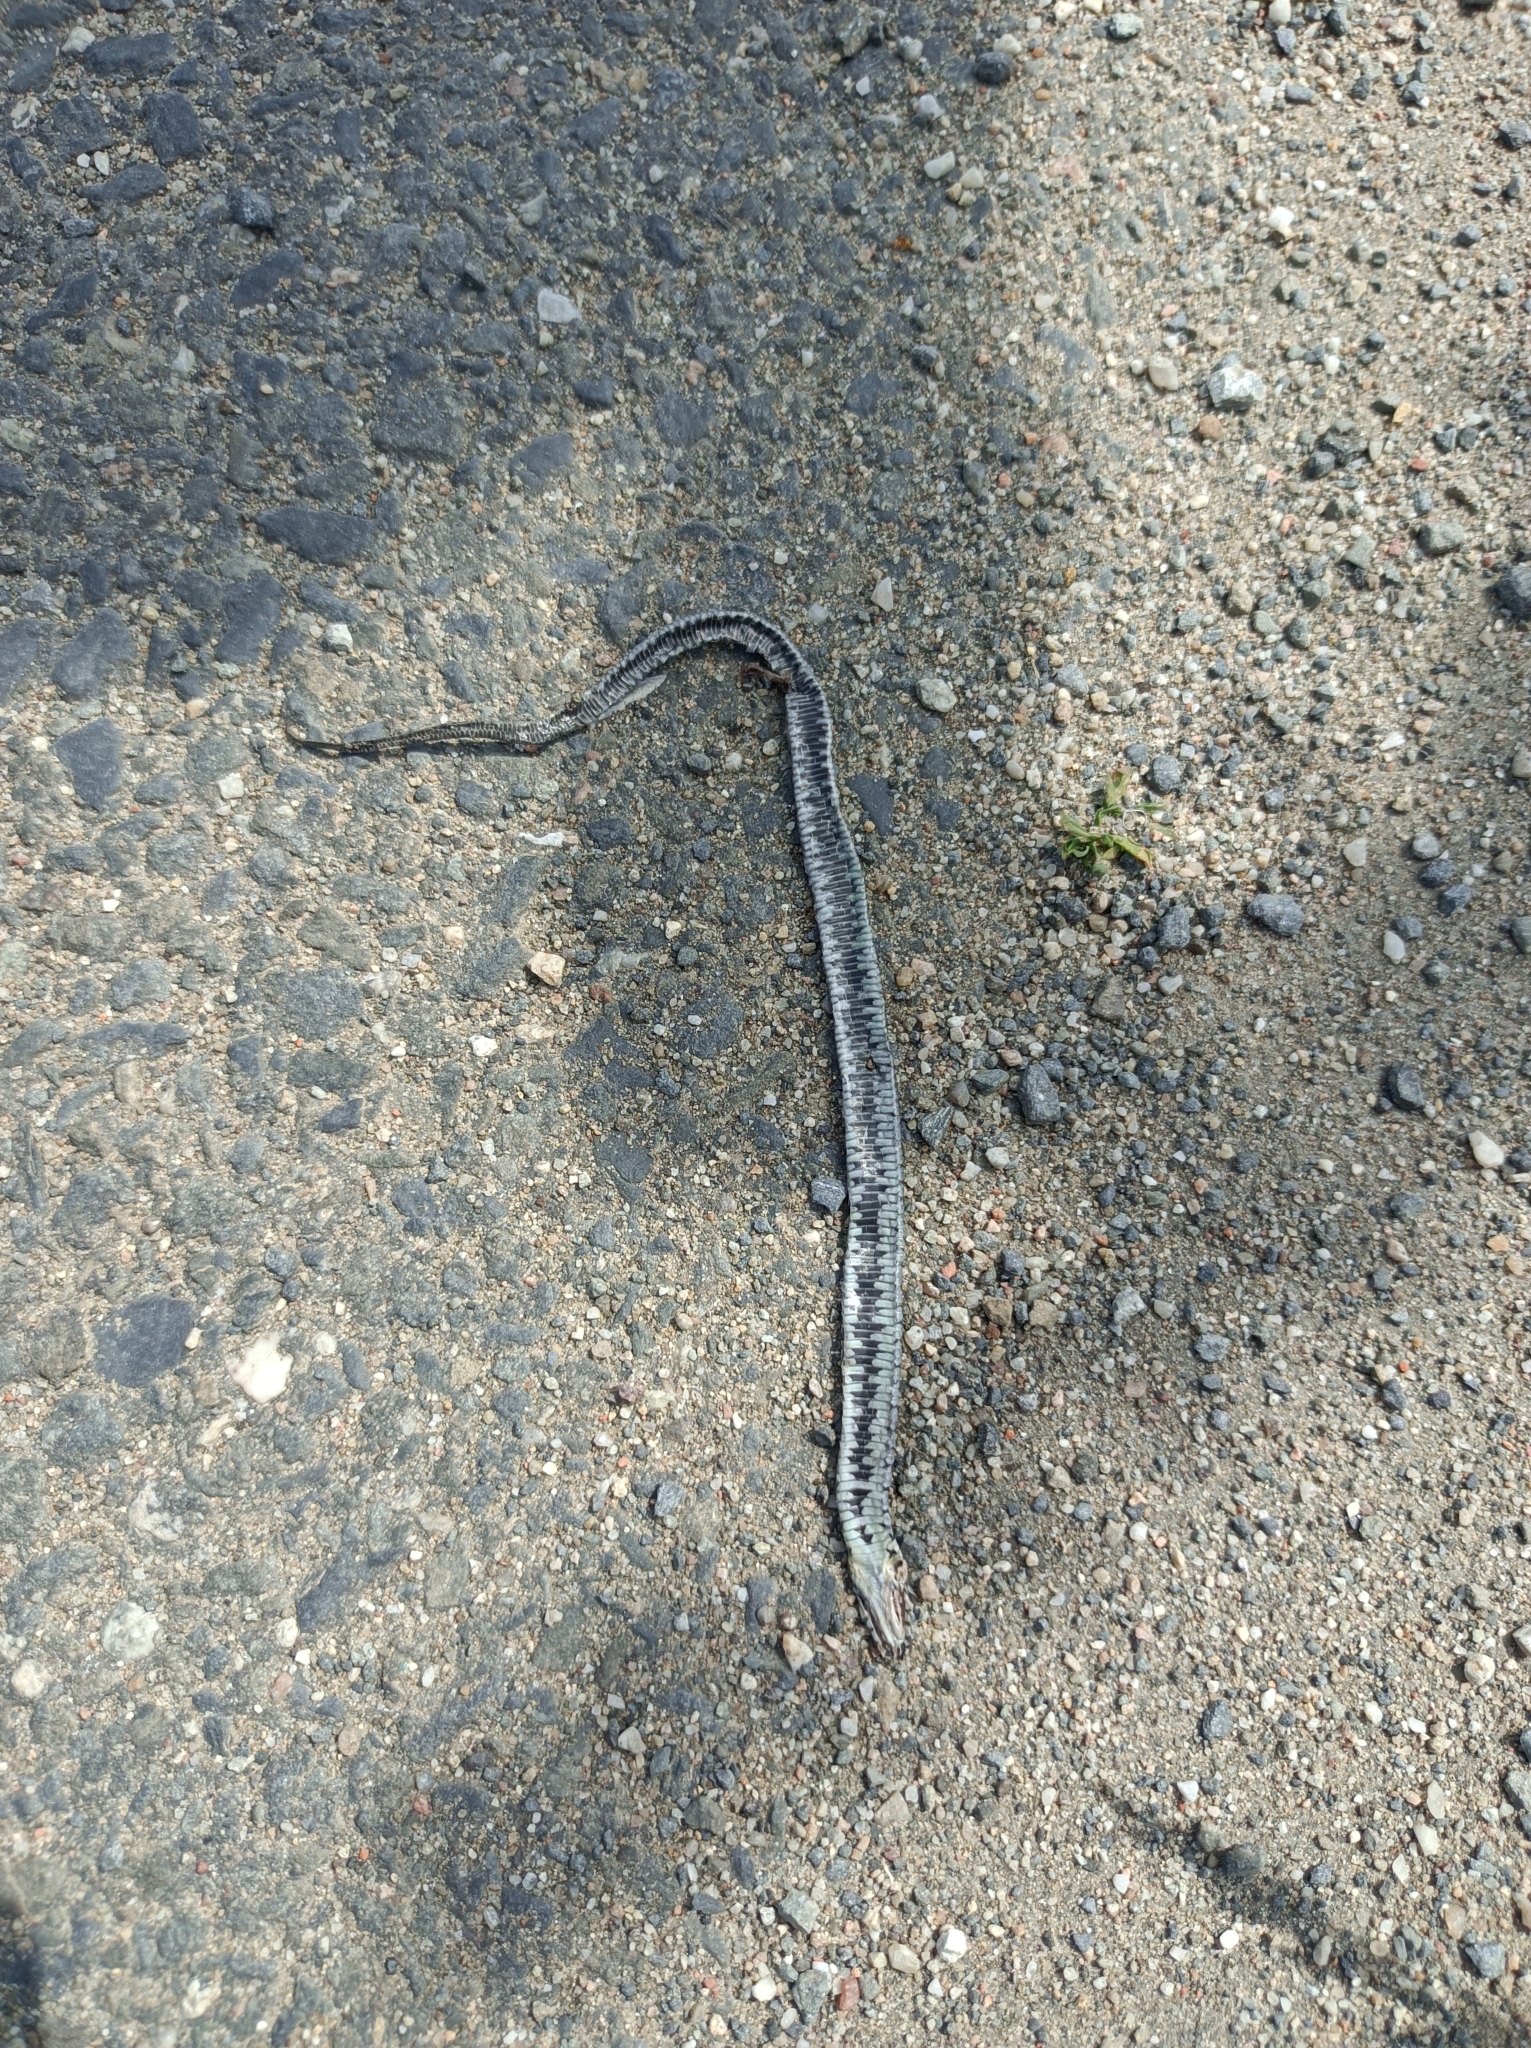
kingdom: Animalia
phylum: Chordata
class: Squamata
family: Colubridae
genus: Natrix
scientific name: Natrix natrix
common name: Grass snake
